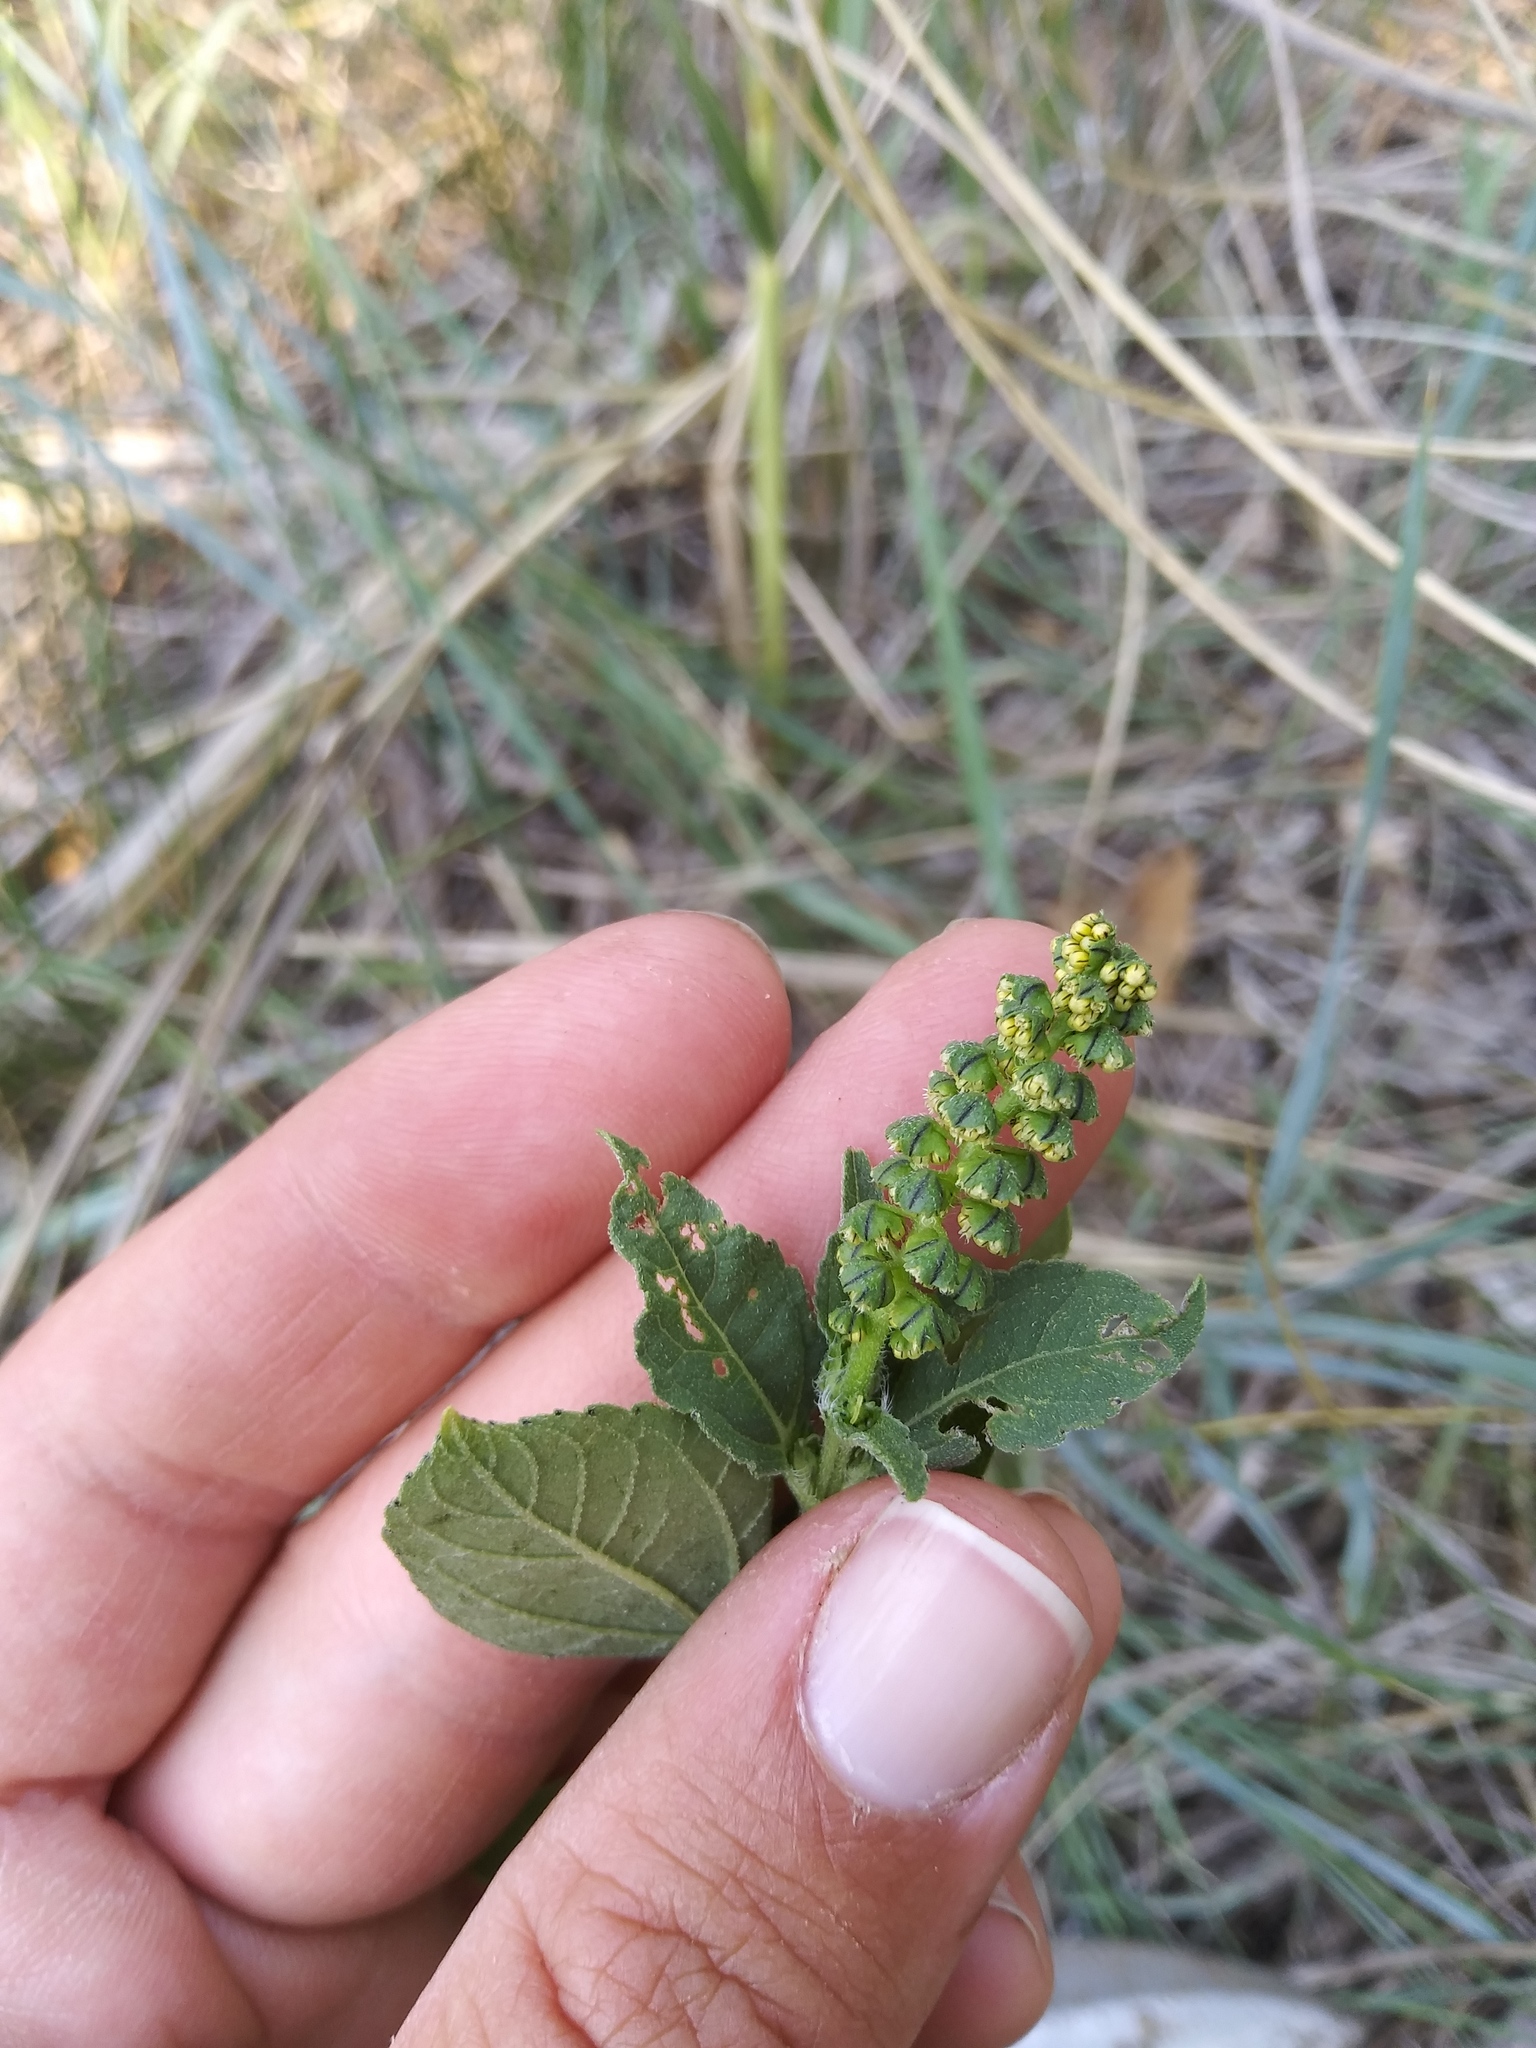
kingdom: Plantae
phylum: Tracheophyta
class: Magnoliopsida
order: Asterales
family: Asteraceae
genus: Ambrosia
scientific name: Ambrosia trifida
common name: Giant ragweed
